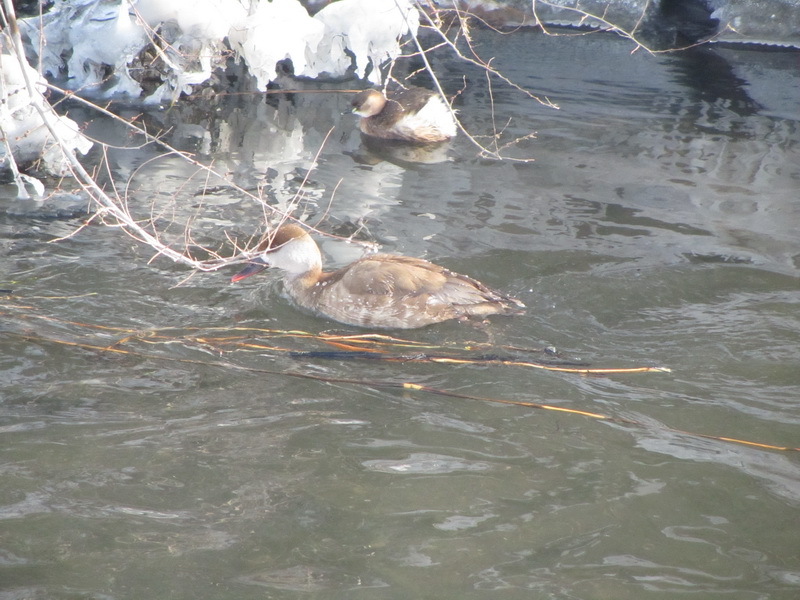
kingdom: Animalia
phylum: Chordata
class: Aves
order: Anseriformes
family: Anatidae
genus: Netta
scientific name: Netta rufina
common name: Red-crested pochard
